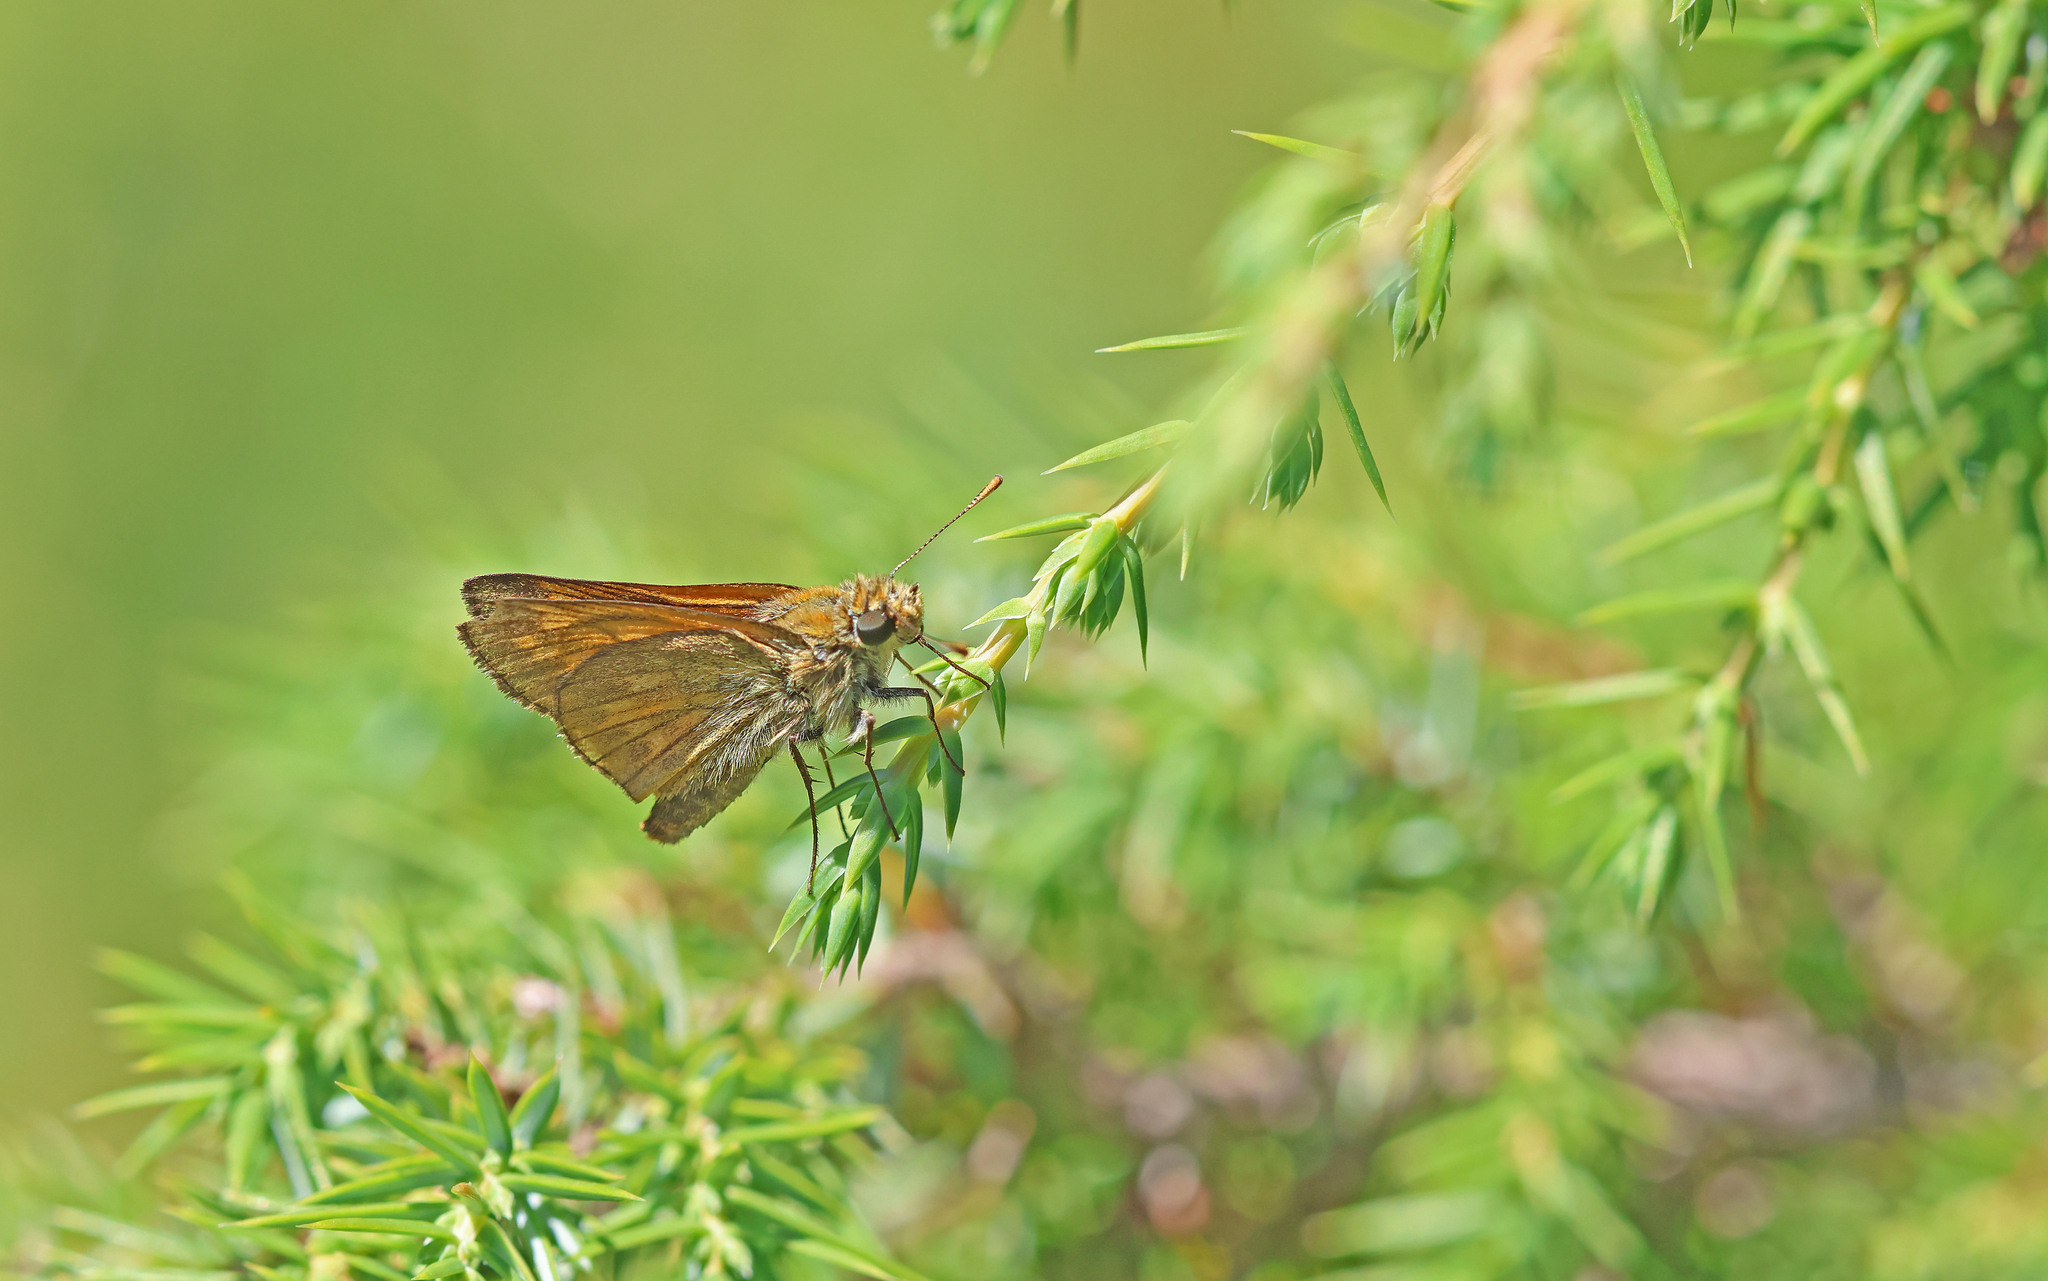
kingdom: Animalia
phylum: Arthropoda
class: Insecta
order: Lepidoptera
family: Hesperiidae
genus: Ochlodes
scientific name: Ochlodes venata
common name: Large skipper
